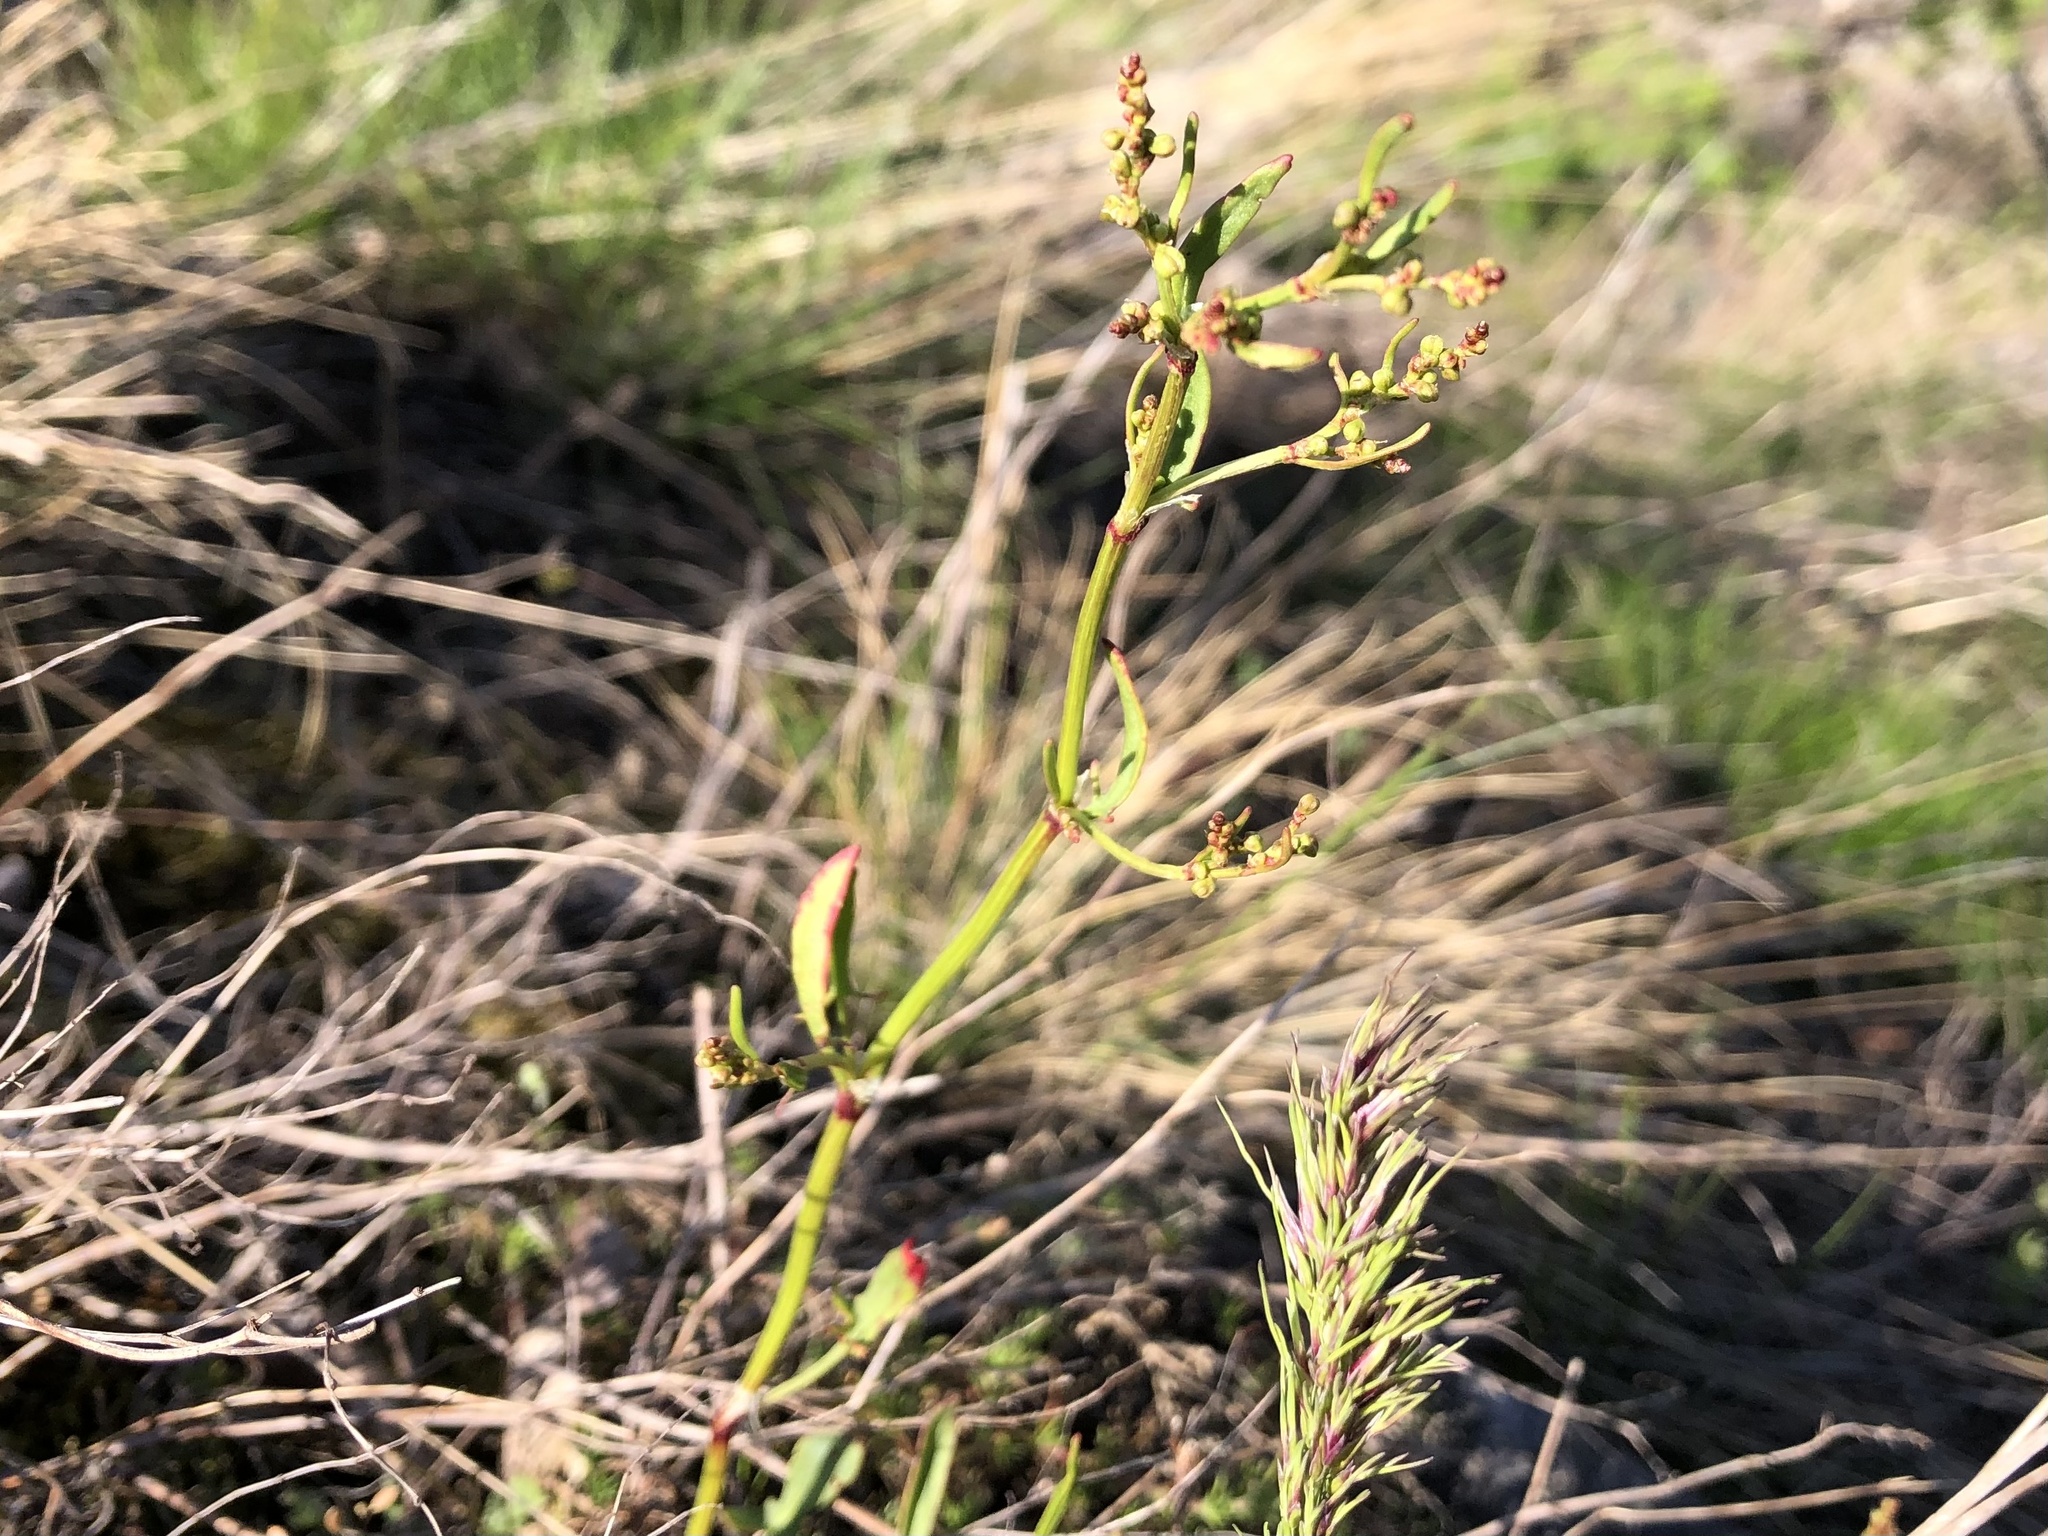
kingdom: Plantae
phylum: Tracheophyta
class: Magnoliopsida
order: Caryophyllales
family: Polygonaceae
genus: Rumex
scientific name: Rumex acetosella
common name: Common sheep sorrel
